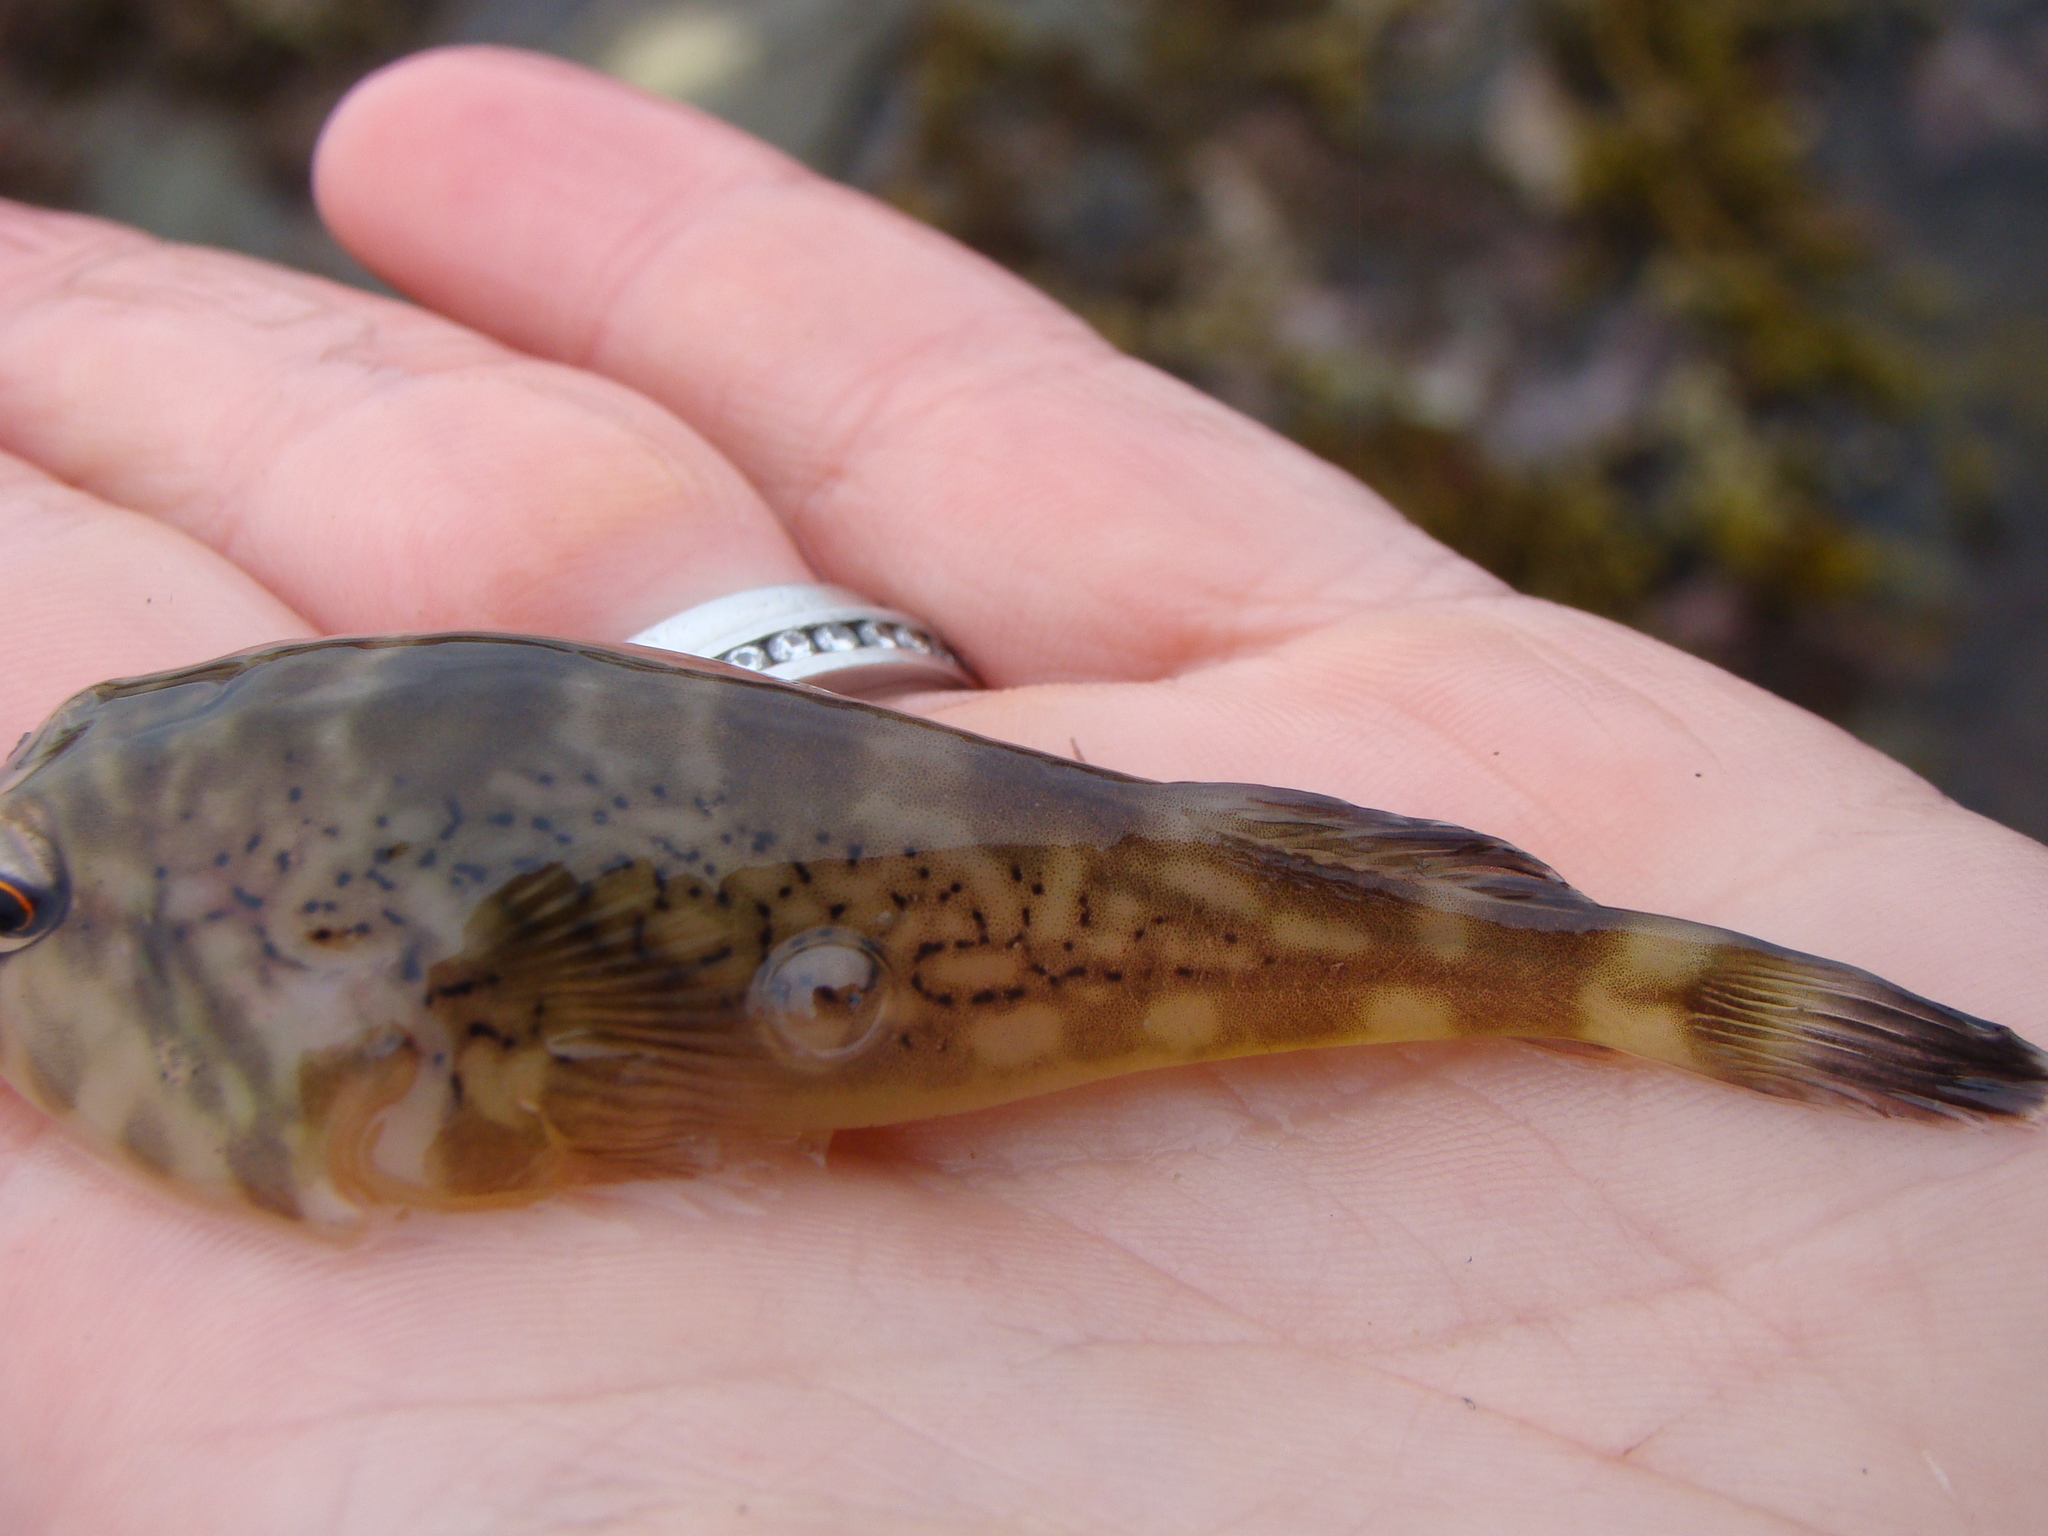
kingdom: Animalia
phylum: Chordata
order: Gobiesociformes
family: Gobiesocidae
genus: Diplocrepis
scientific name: Diplocrepis puniceus
